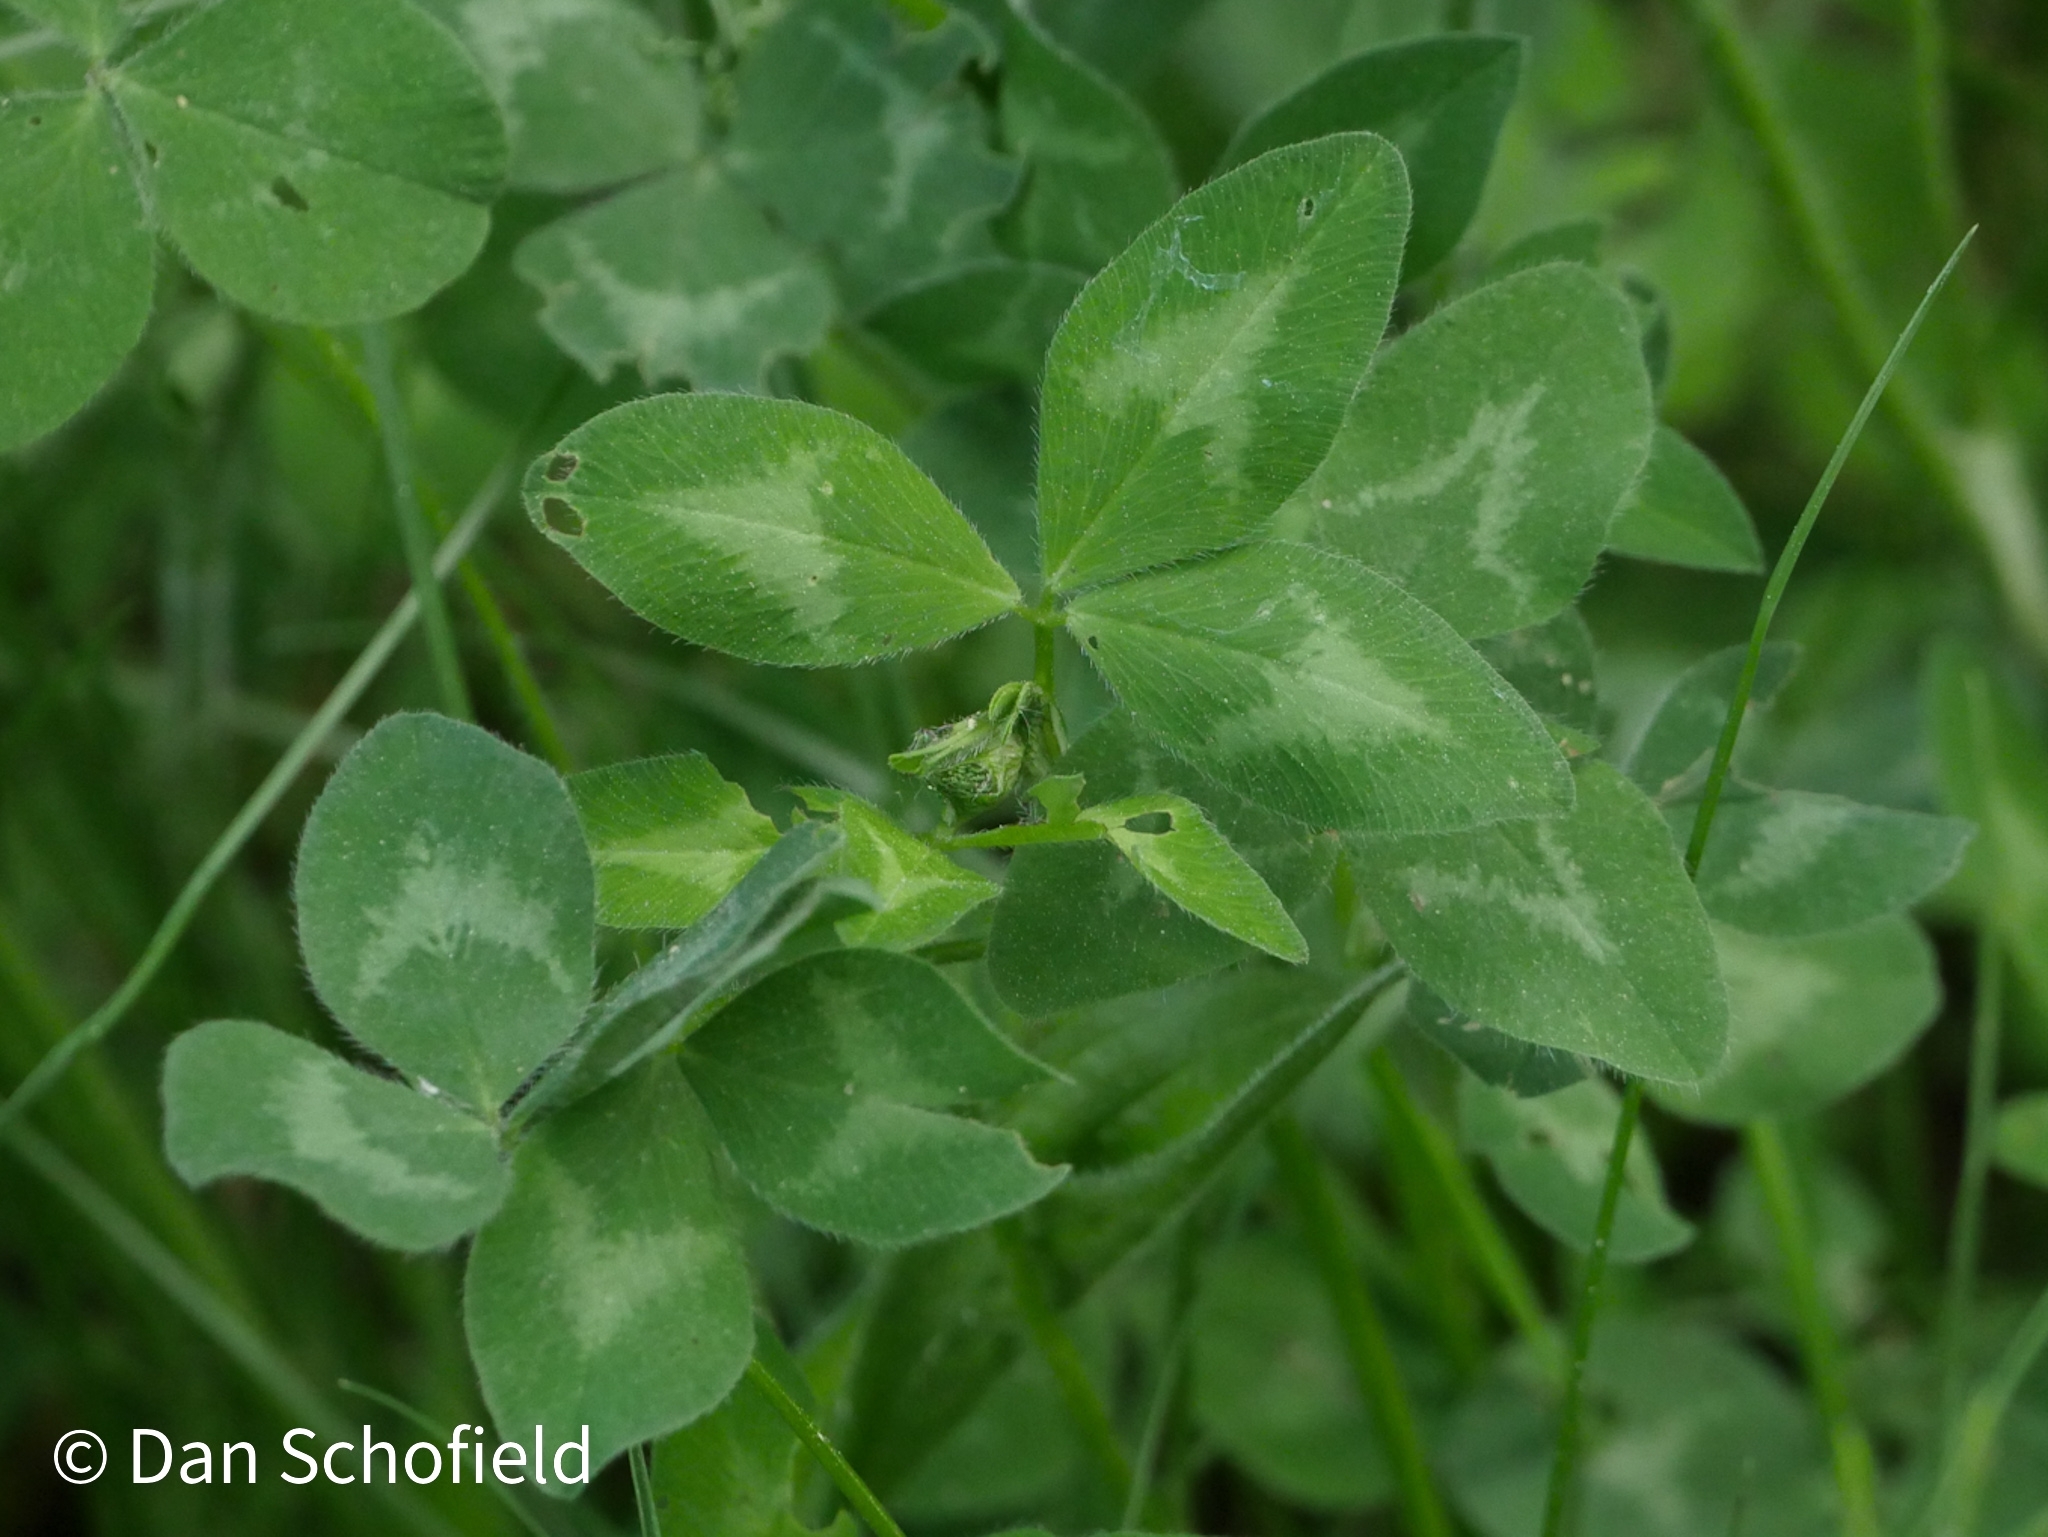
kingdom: Plantae
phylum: Tracheophyta
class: Magnoliopsida
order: Fabales
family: Fabaceae
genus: Trifolium
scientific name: Trifolium pratense
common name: Red clover
